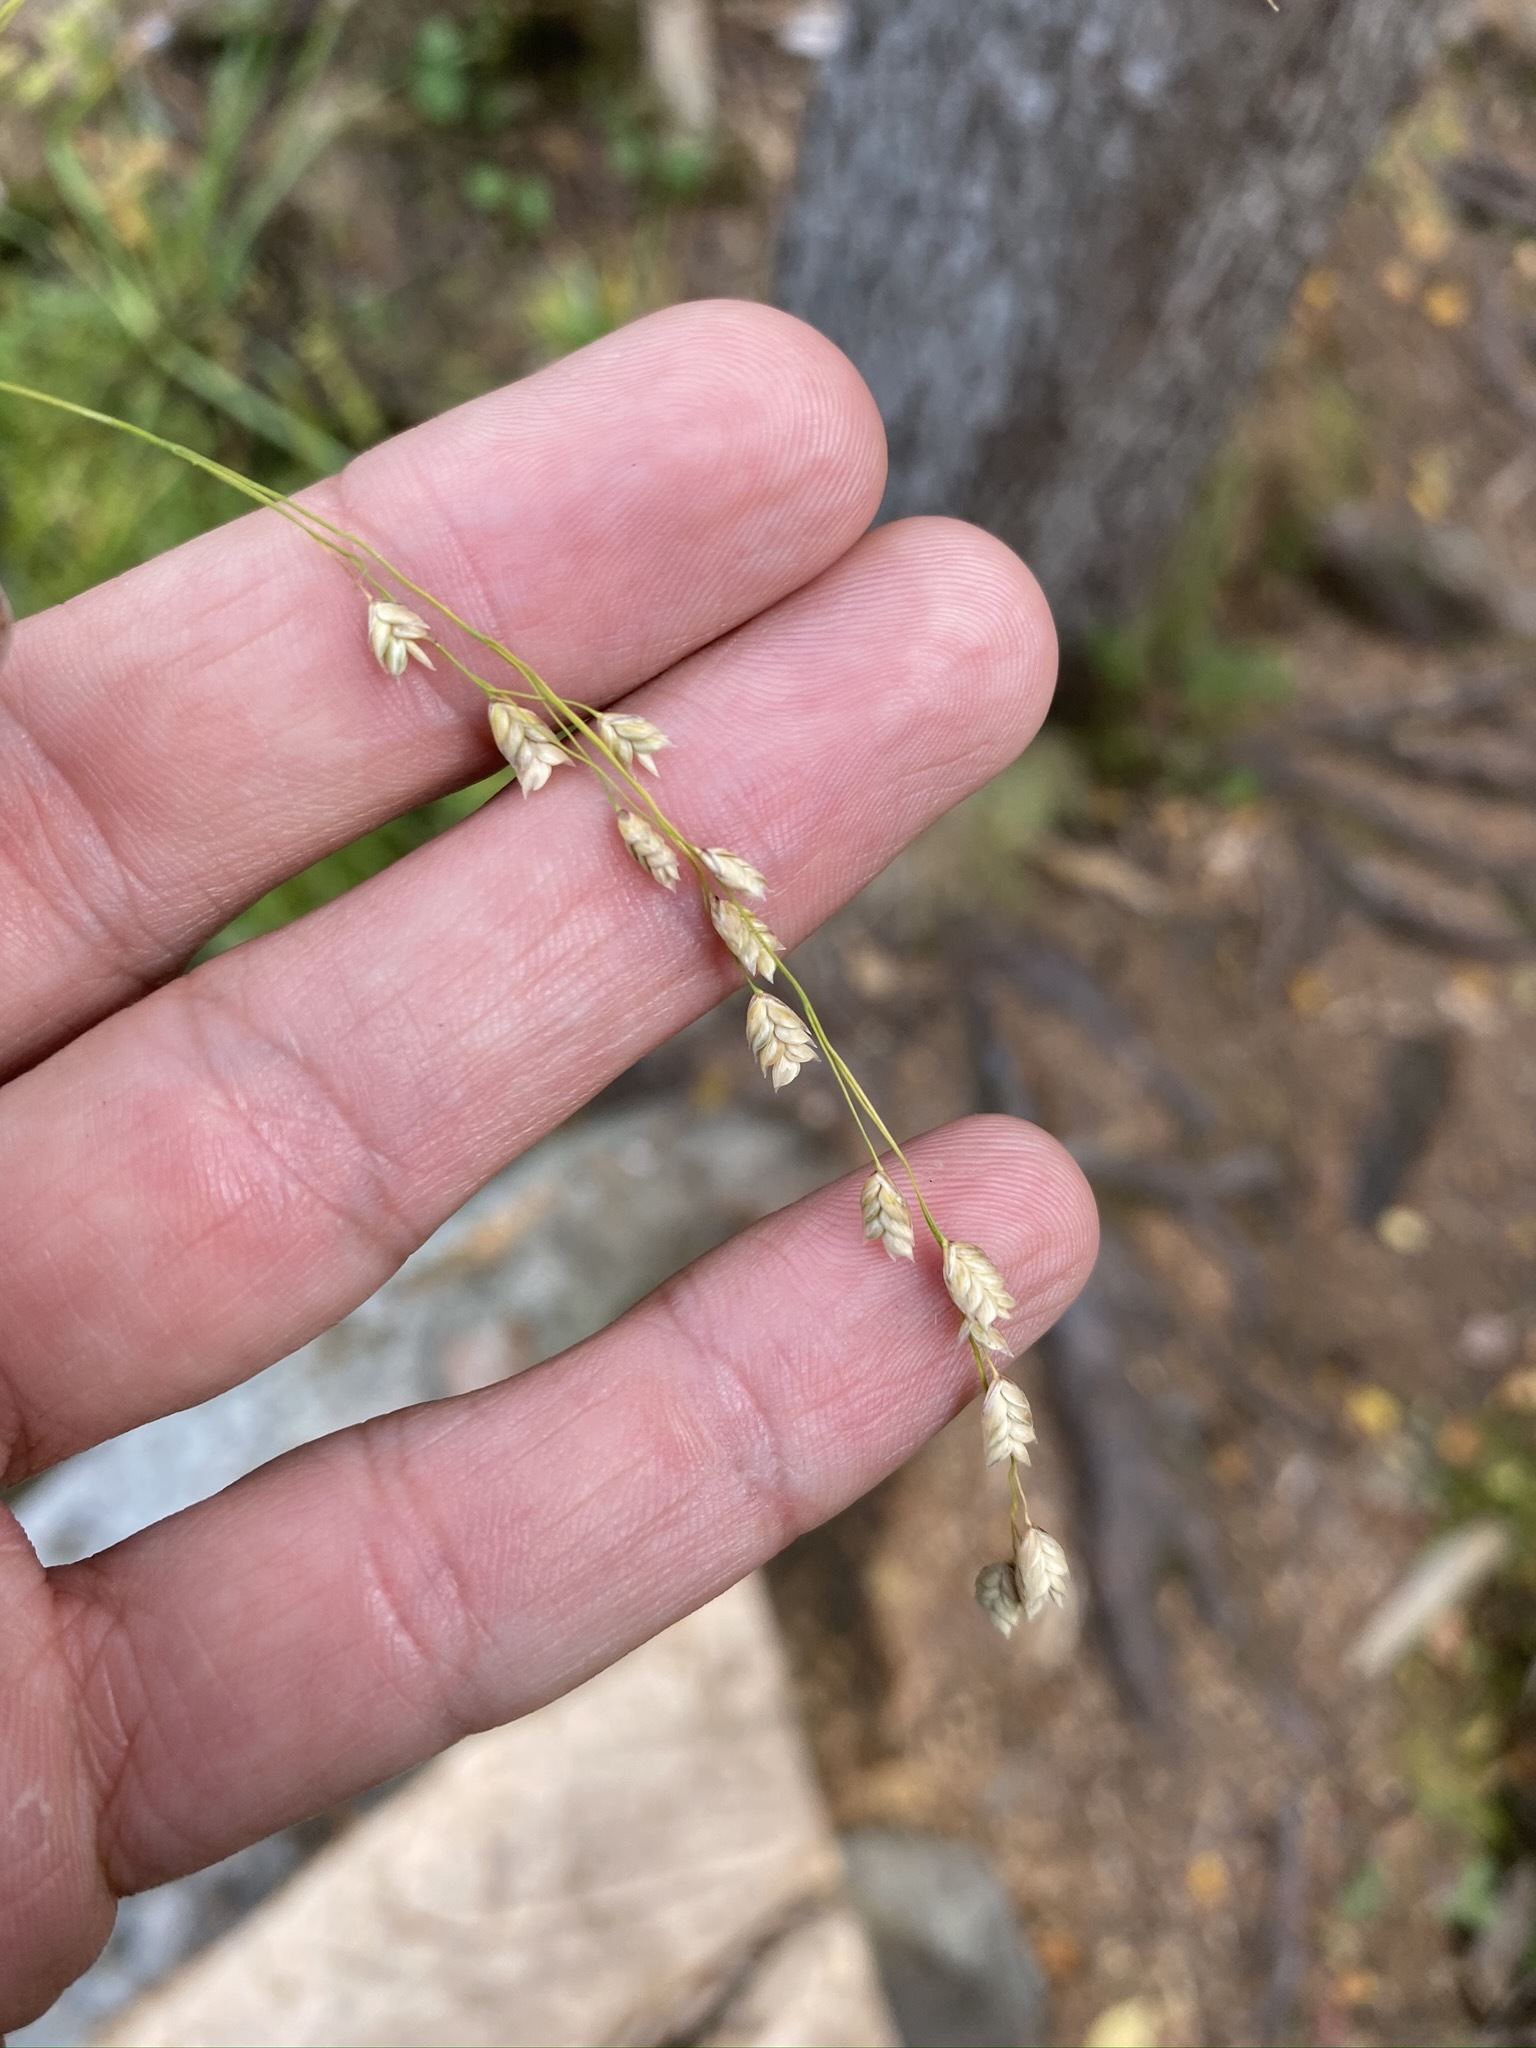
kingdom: Plantae
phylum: Tracheophyta
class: Liliopsida
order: Poales
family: Poaceae
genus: Glyceria
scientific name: Glyceria canadensis
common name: Canada mannagrass
